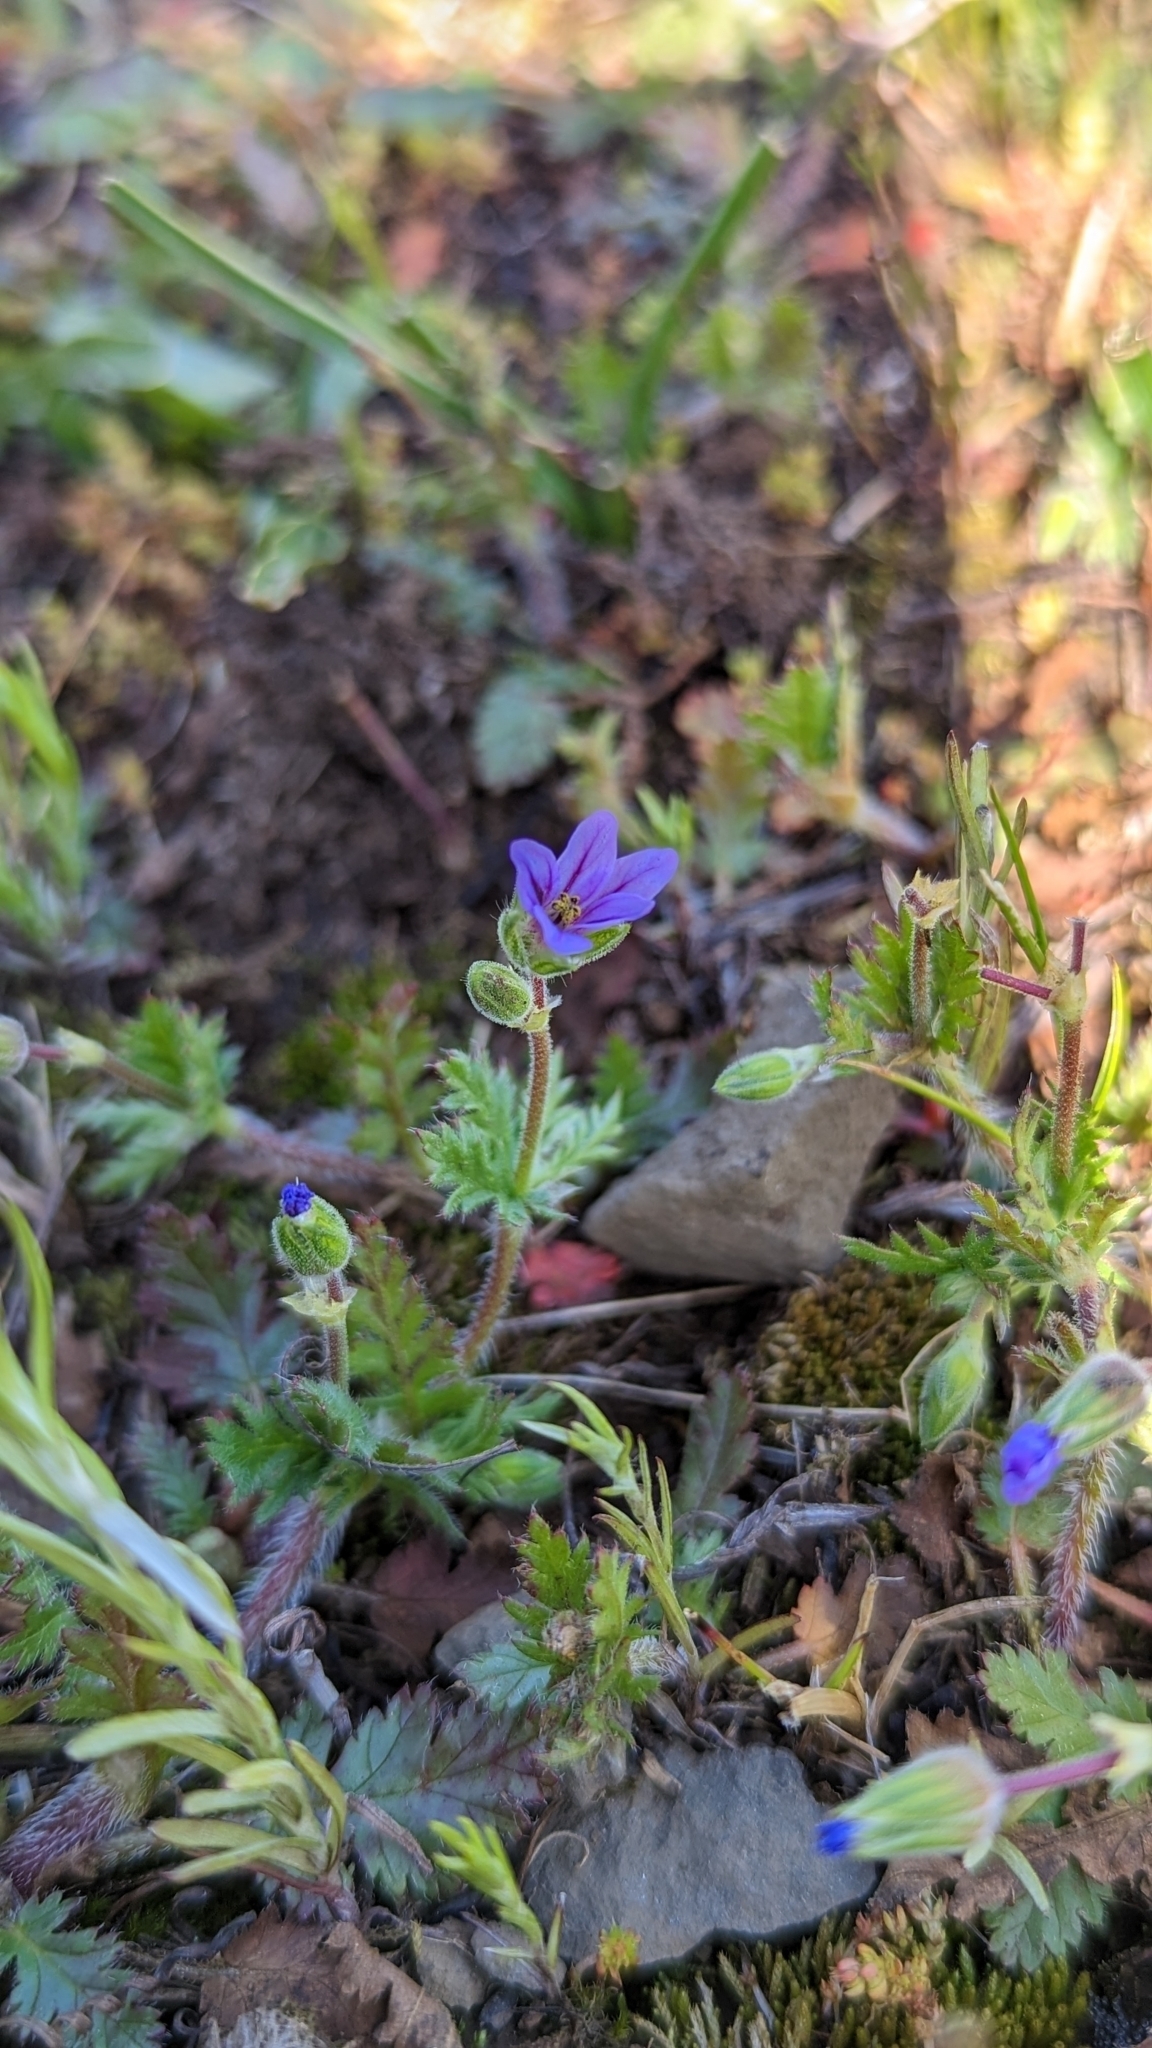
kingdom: Plantae
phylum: Tracheophyta
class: Magnoliopsida
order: Geraniales
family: Geraniaceae
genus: Erodium
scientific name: Erodium brachycarpum
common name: Hairy-pitted stork's-bill
